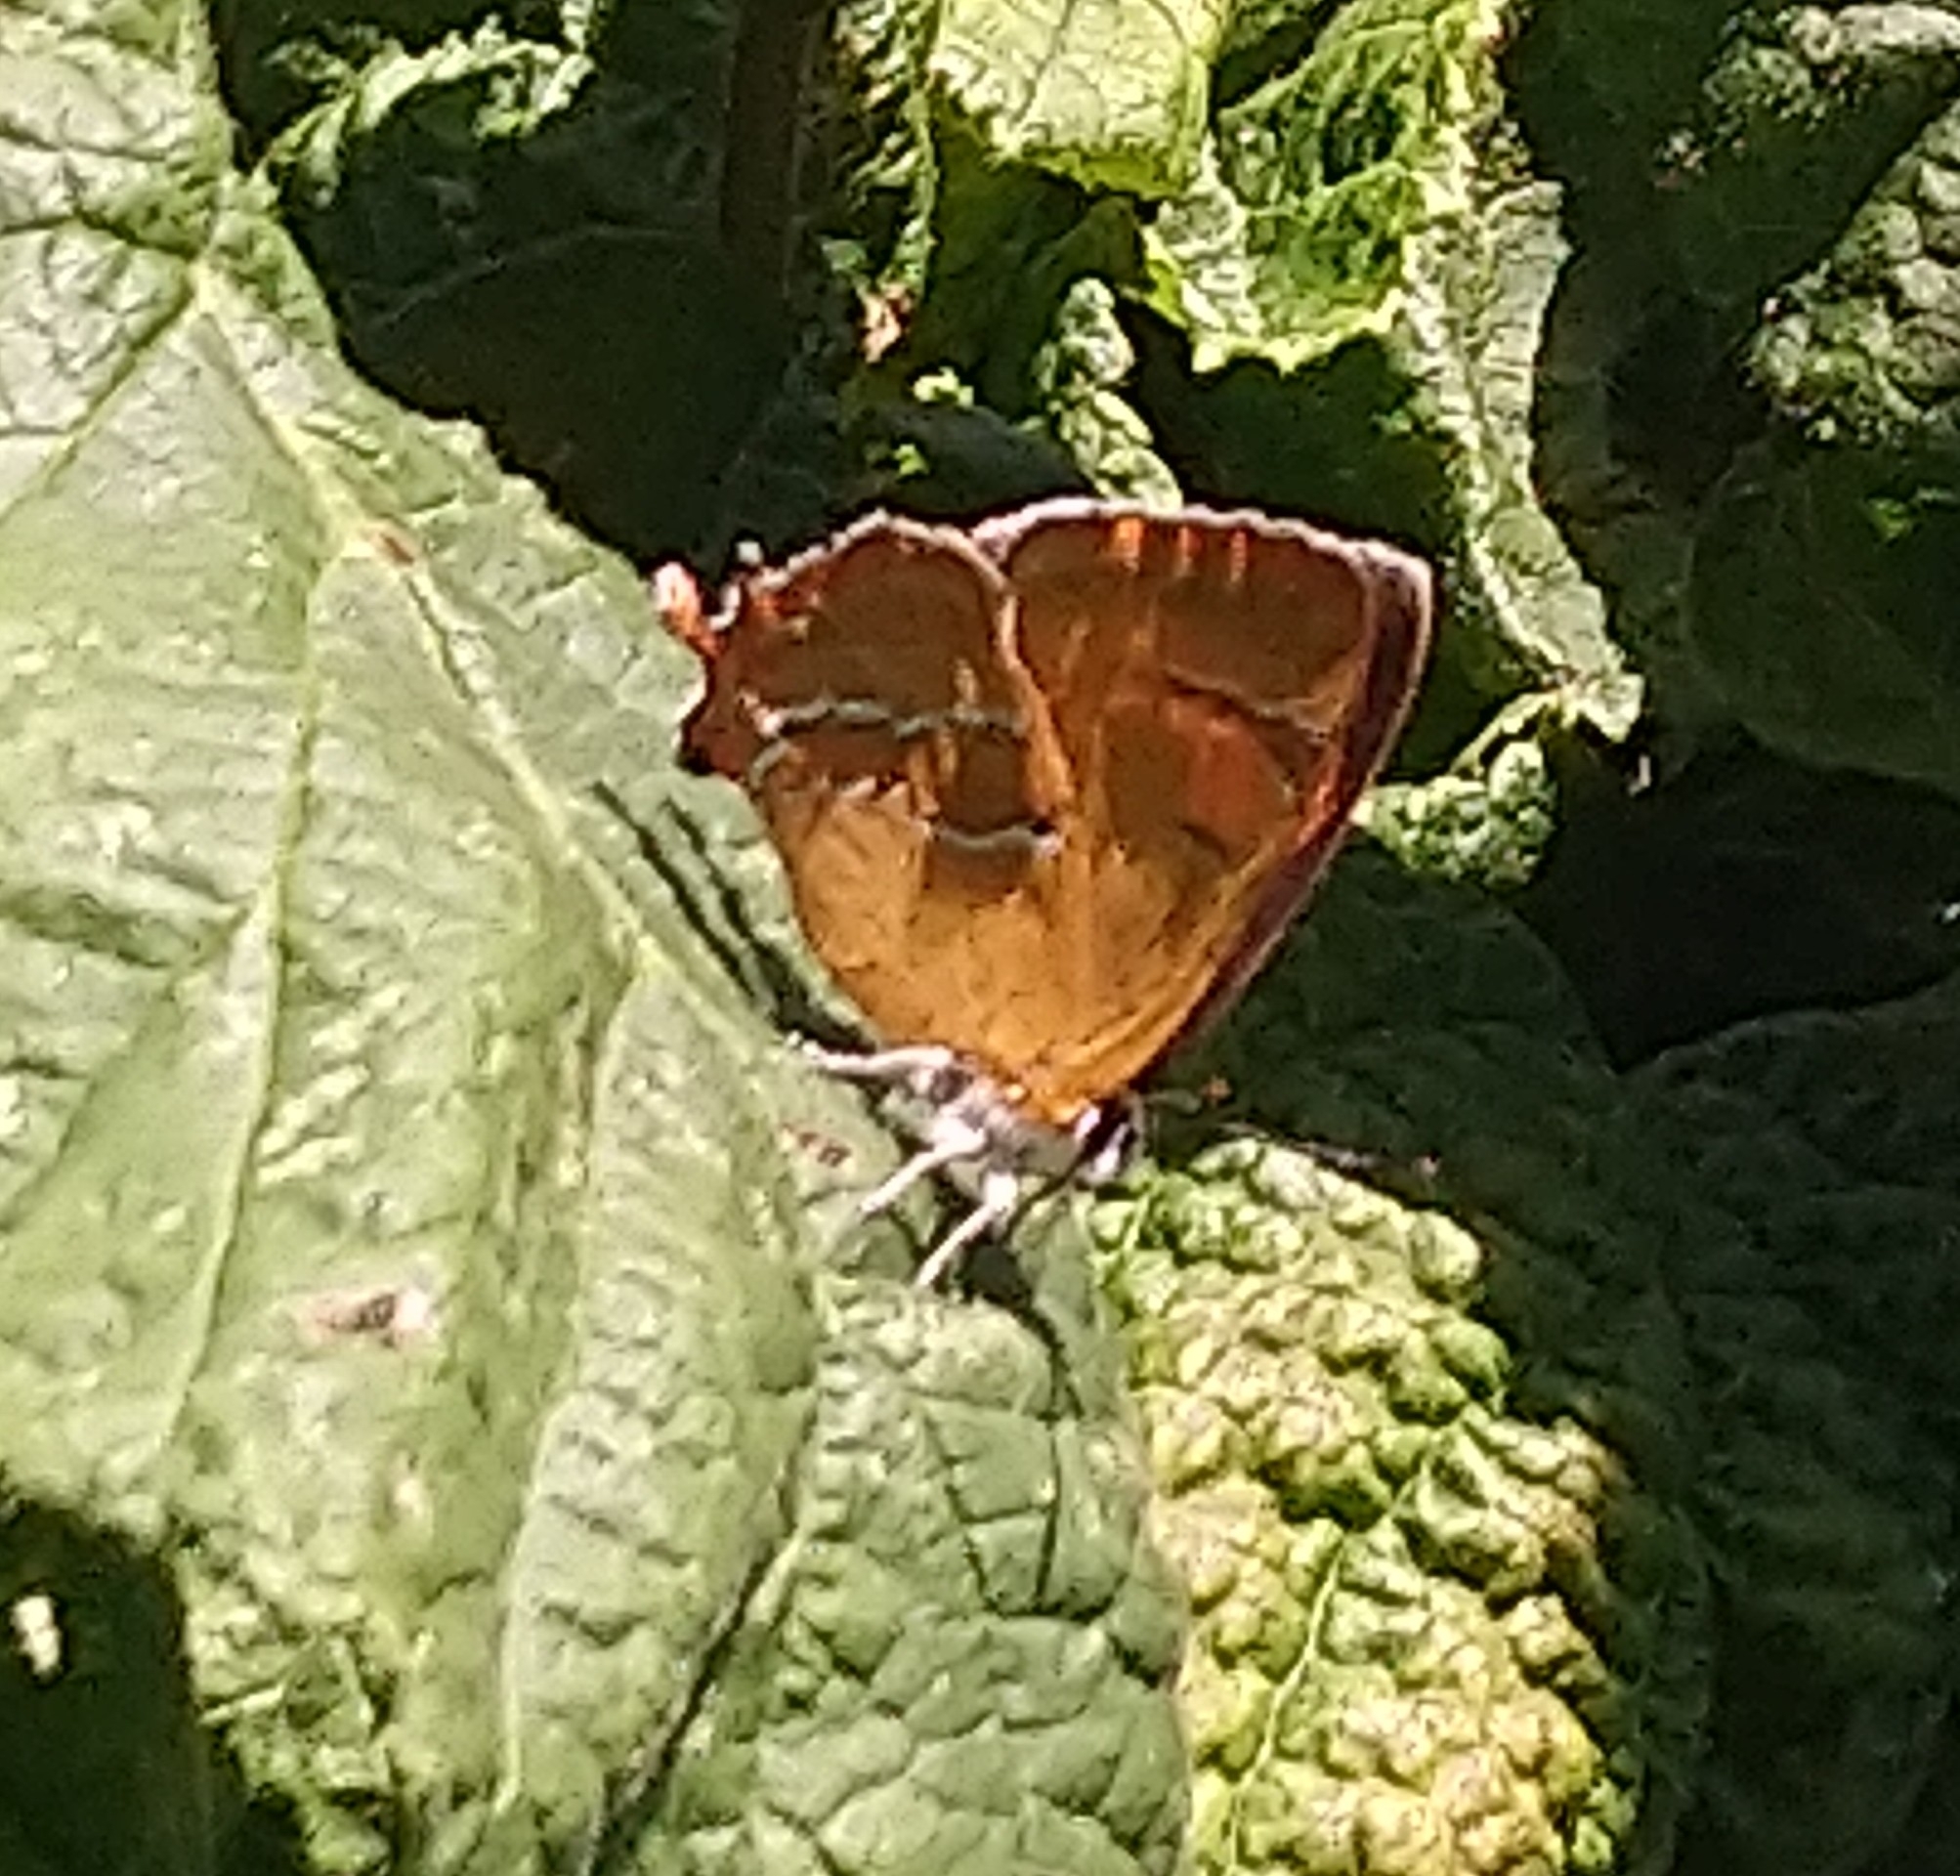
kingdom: Animalia
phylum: Arthropoda
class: Insecta
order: Lepidoptera
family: Lycaenidae
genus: Thecla
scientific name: Thecla betulae
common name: Brown hairstreak
